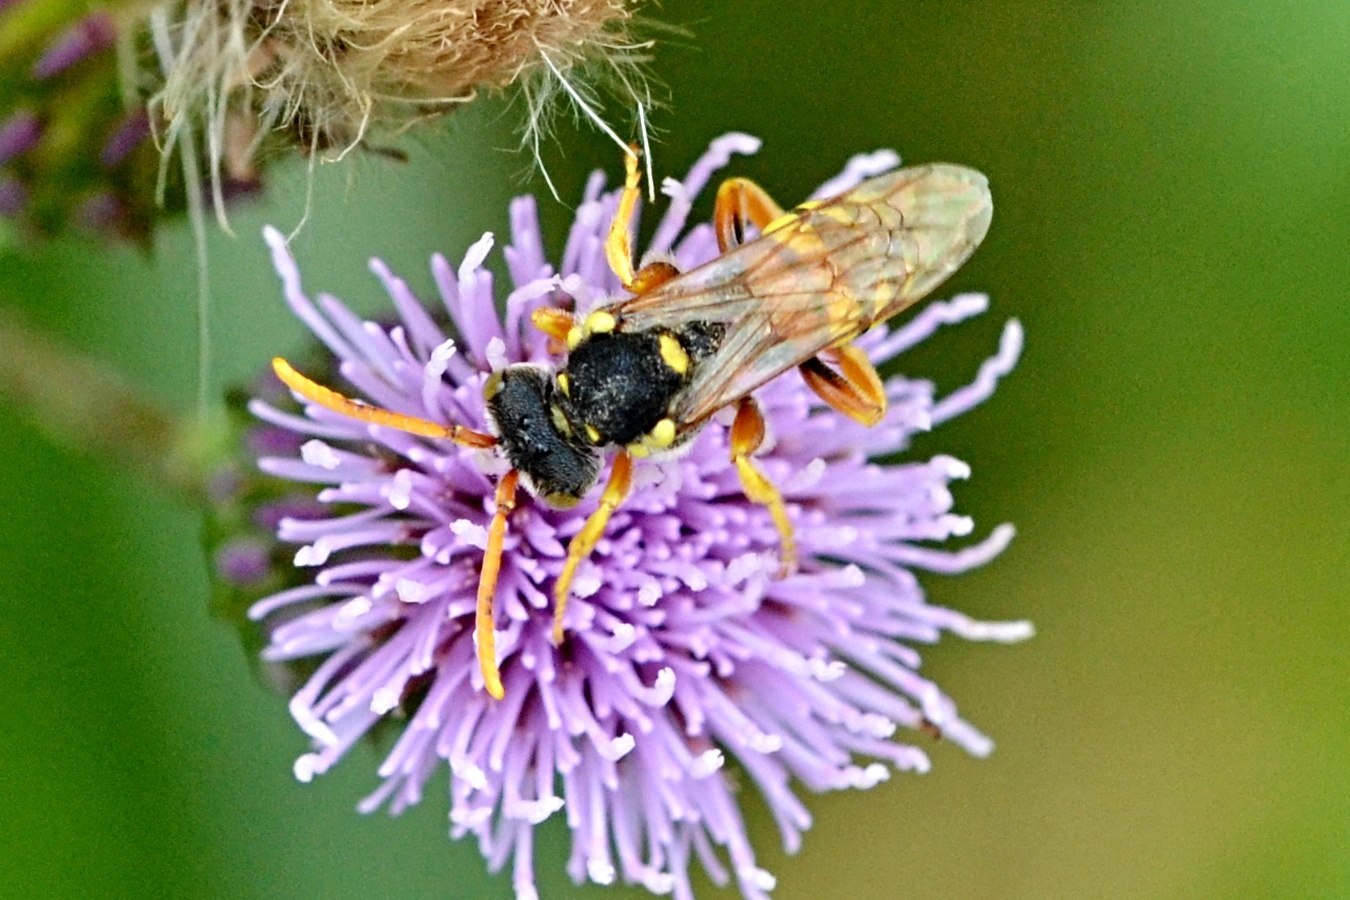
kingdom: Animalia
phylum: Arthropoda
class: Insecta
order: Hymenoptera
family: Apidae
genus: Nomada
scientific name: Nomada fucata
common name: Painted nomad bee
